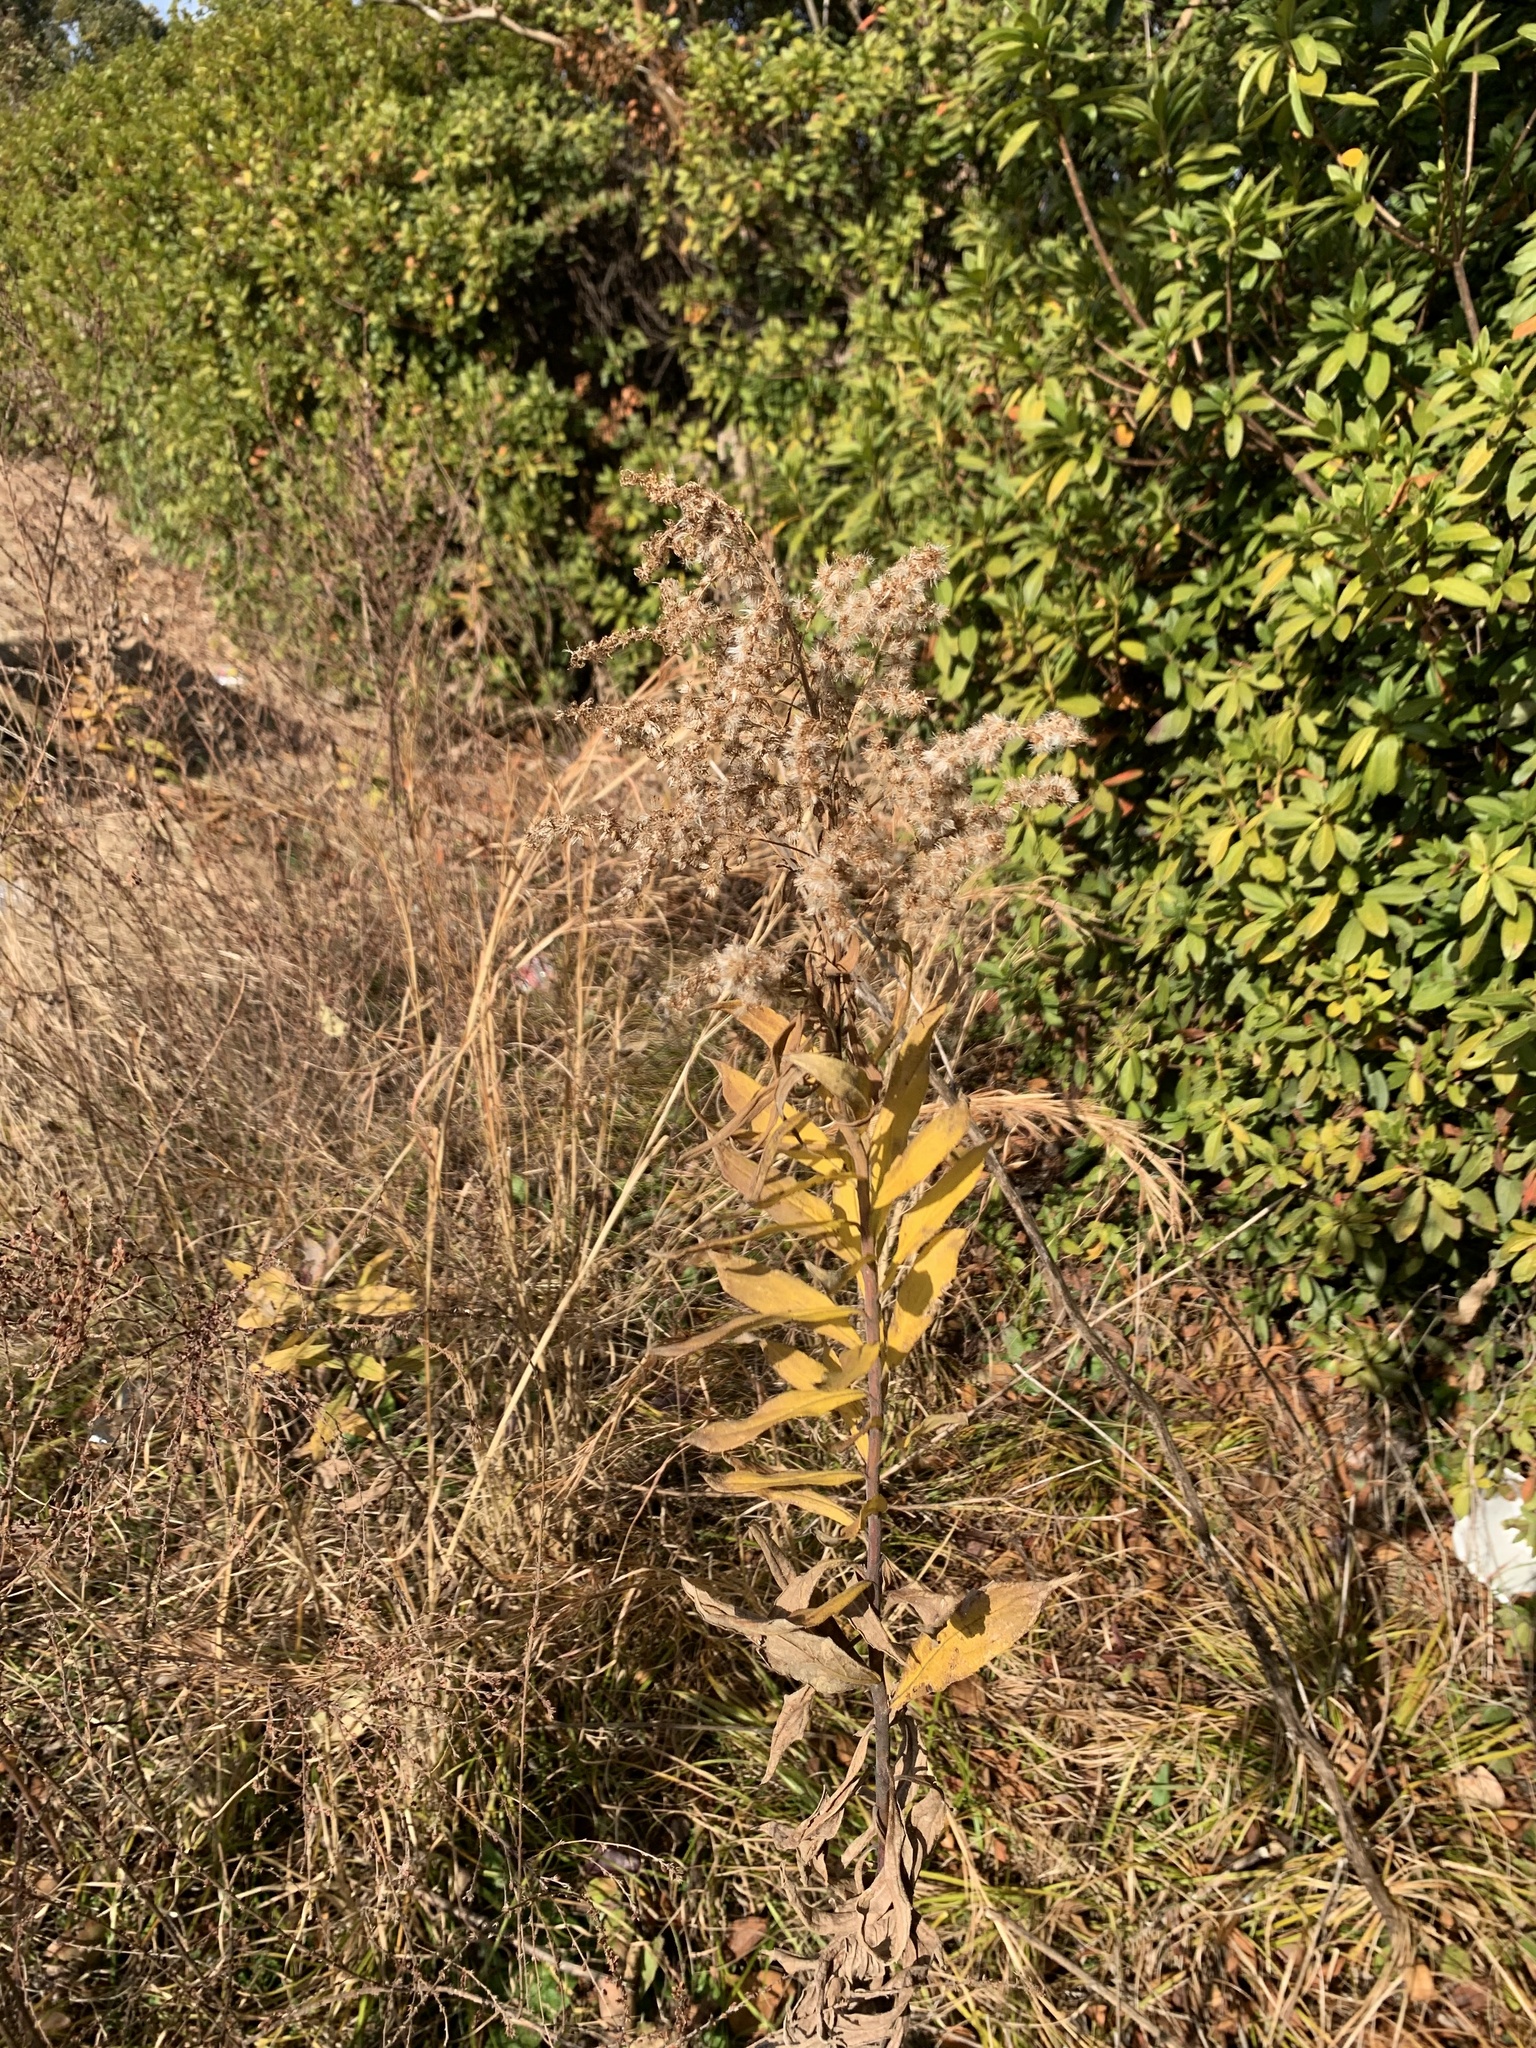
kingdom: Plantae
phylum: Tracheophyta
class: Magnoliopsida
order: Asterales
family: Asteraceae
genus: Solidago
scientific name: Solidago altissima
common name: Late goldenrod
